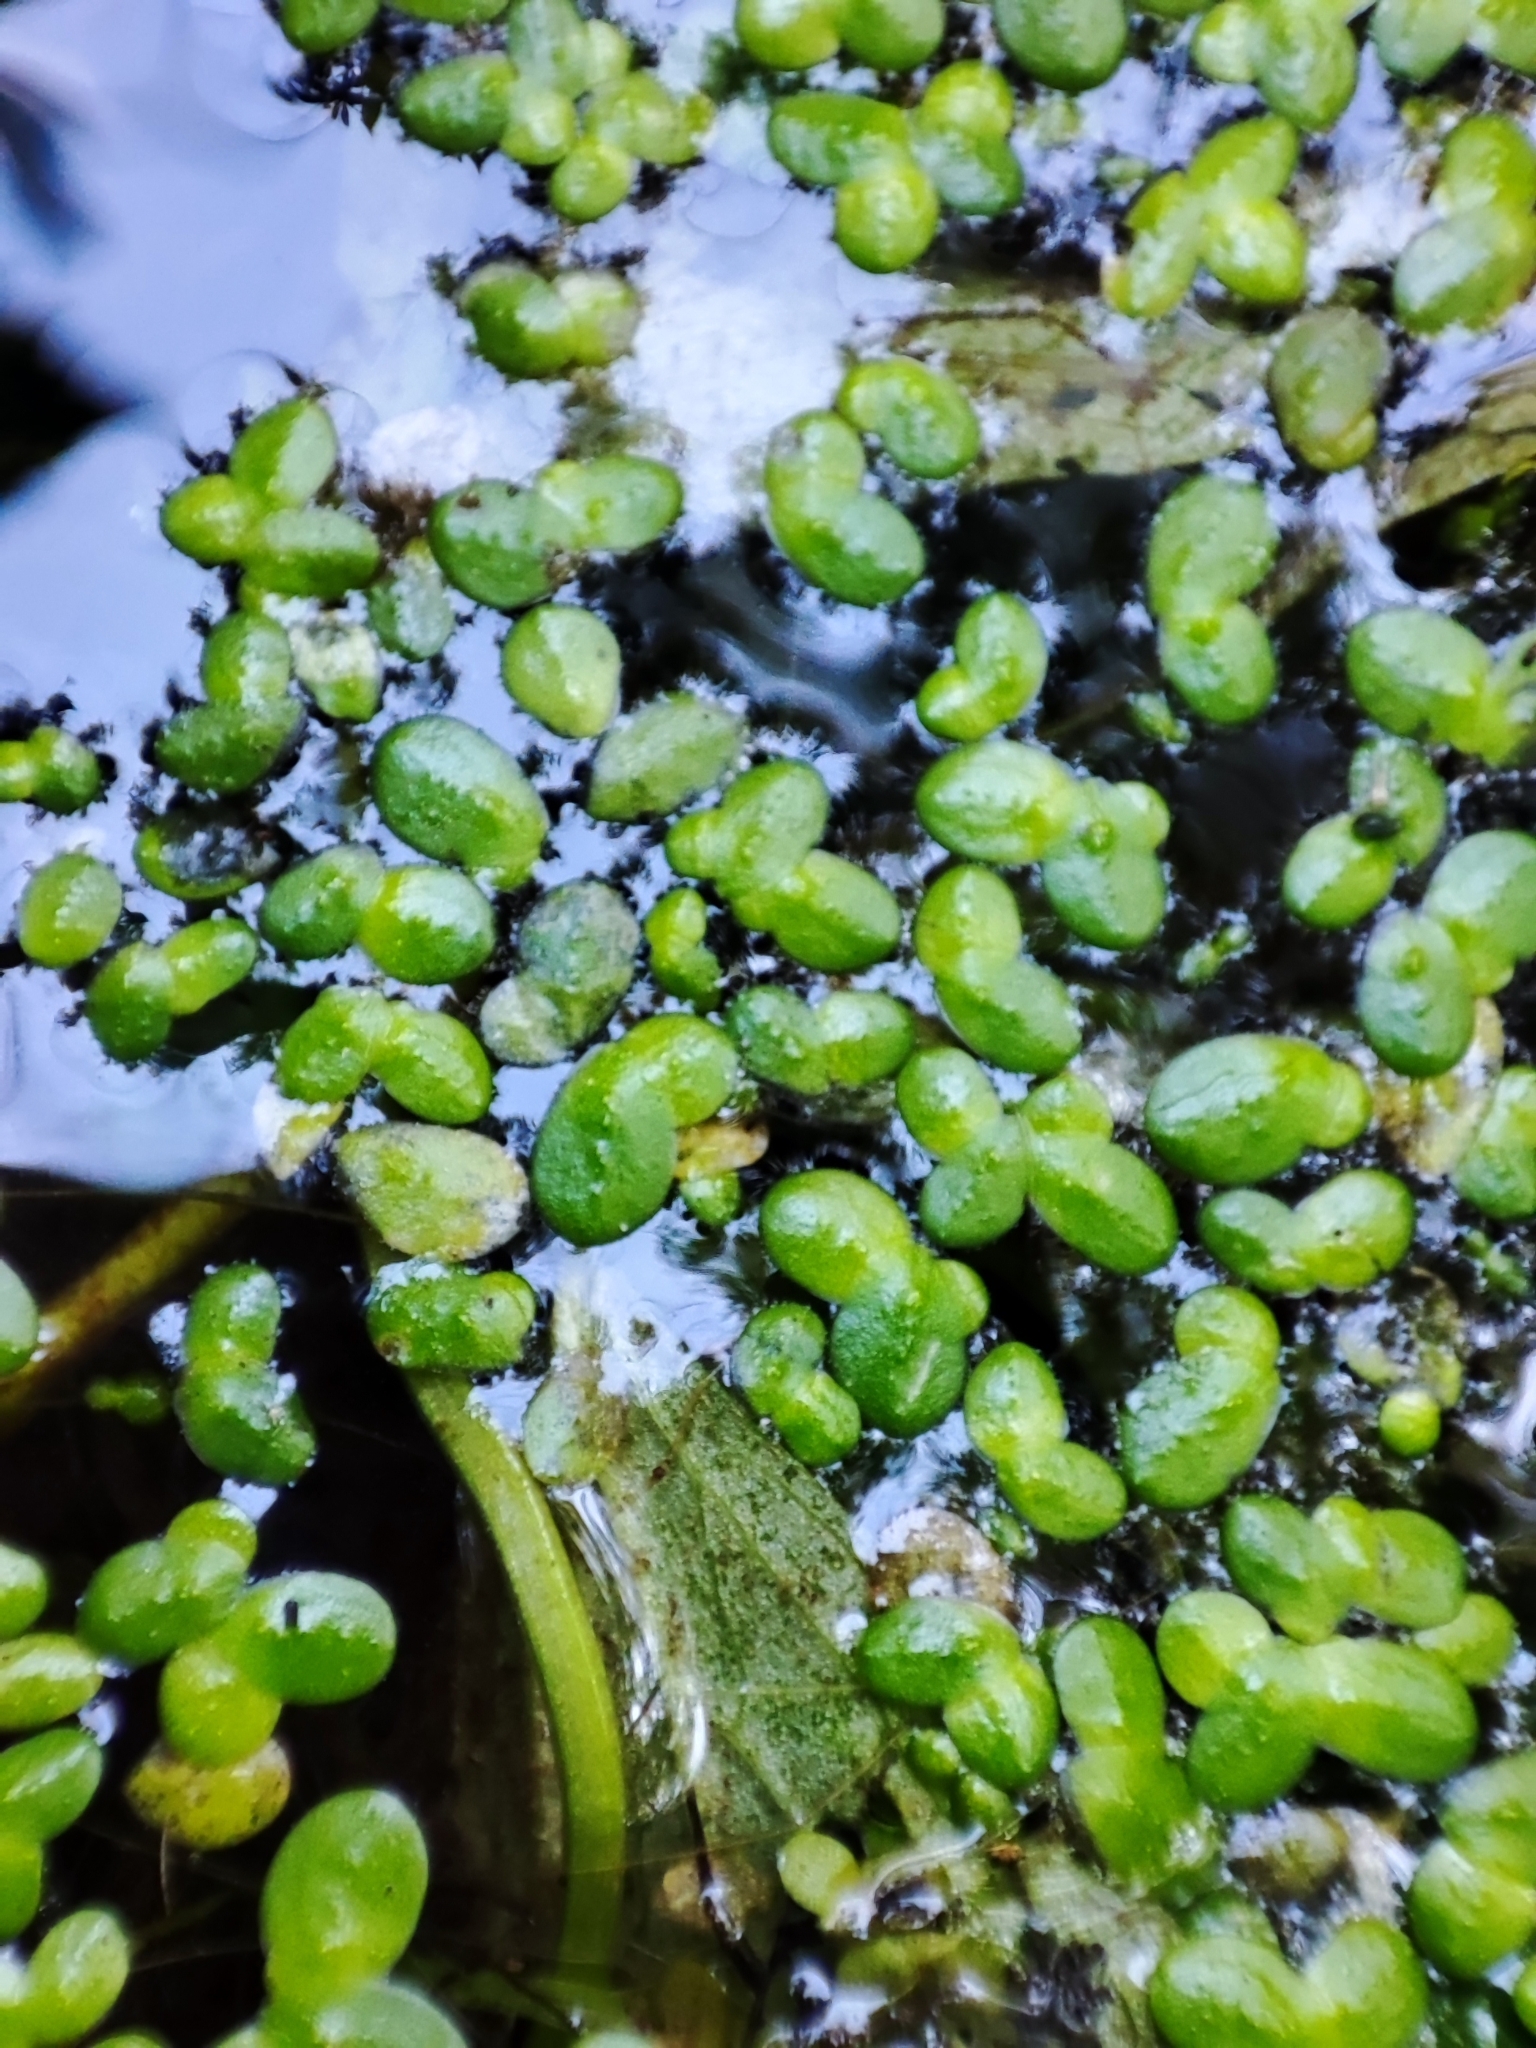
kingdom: Plantae
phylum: Tracheophyta
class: Liliopsida
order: Alismatales
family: Araceae
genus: Lemna
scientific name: Lemna minor
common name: Common duckweed
